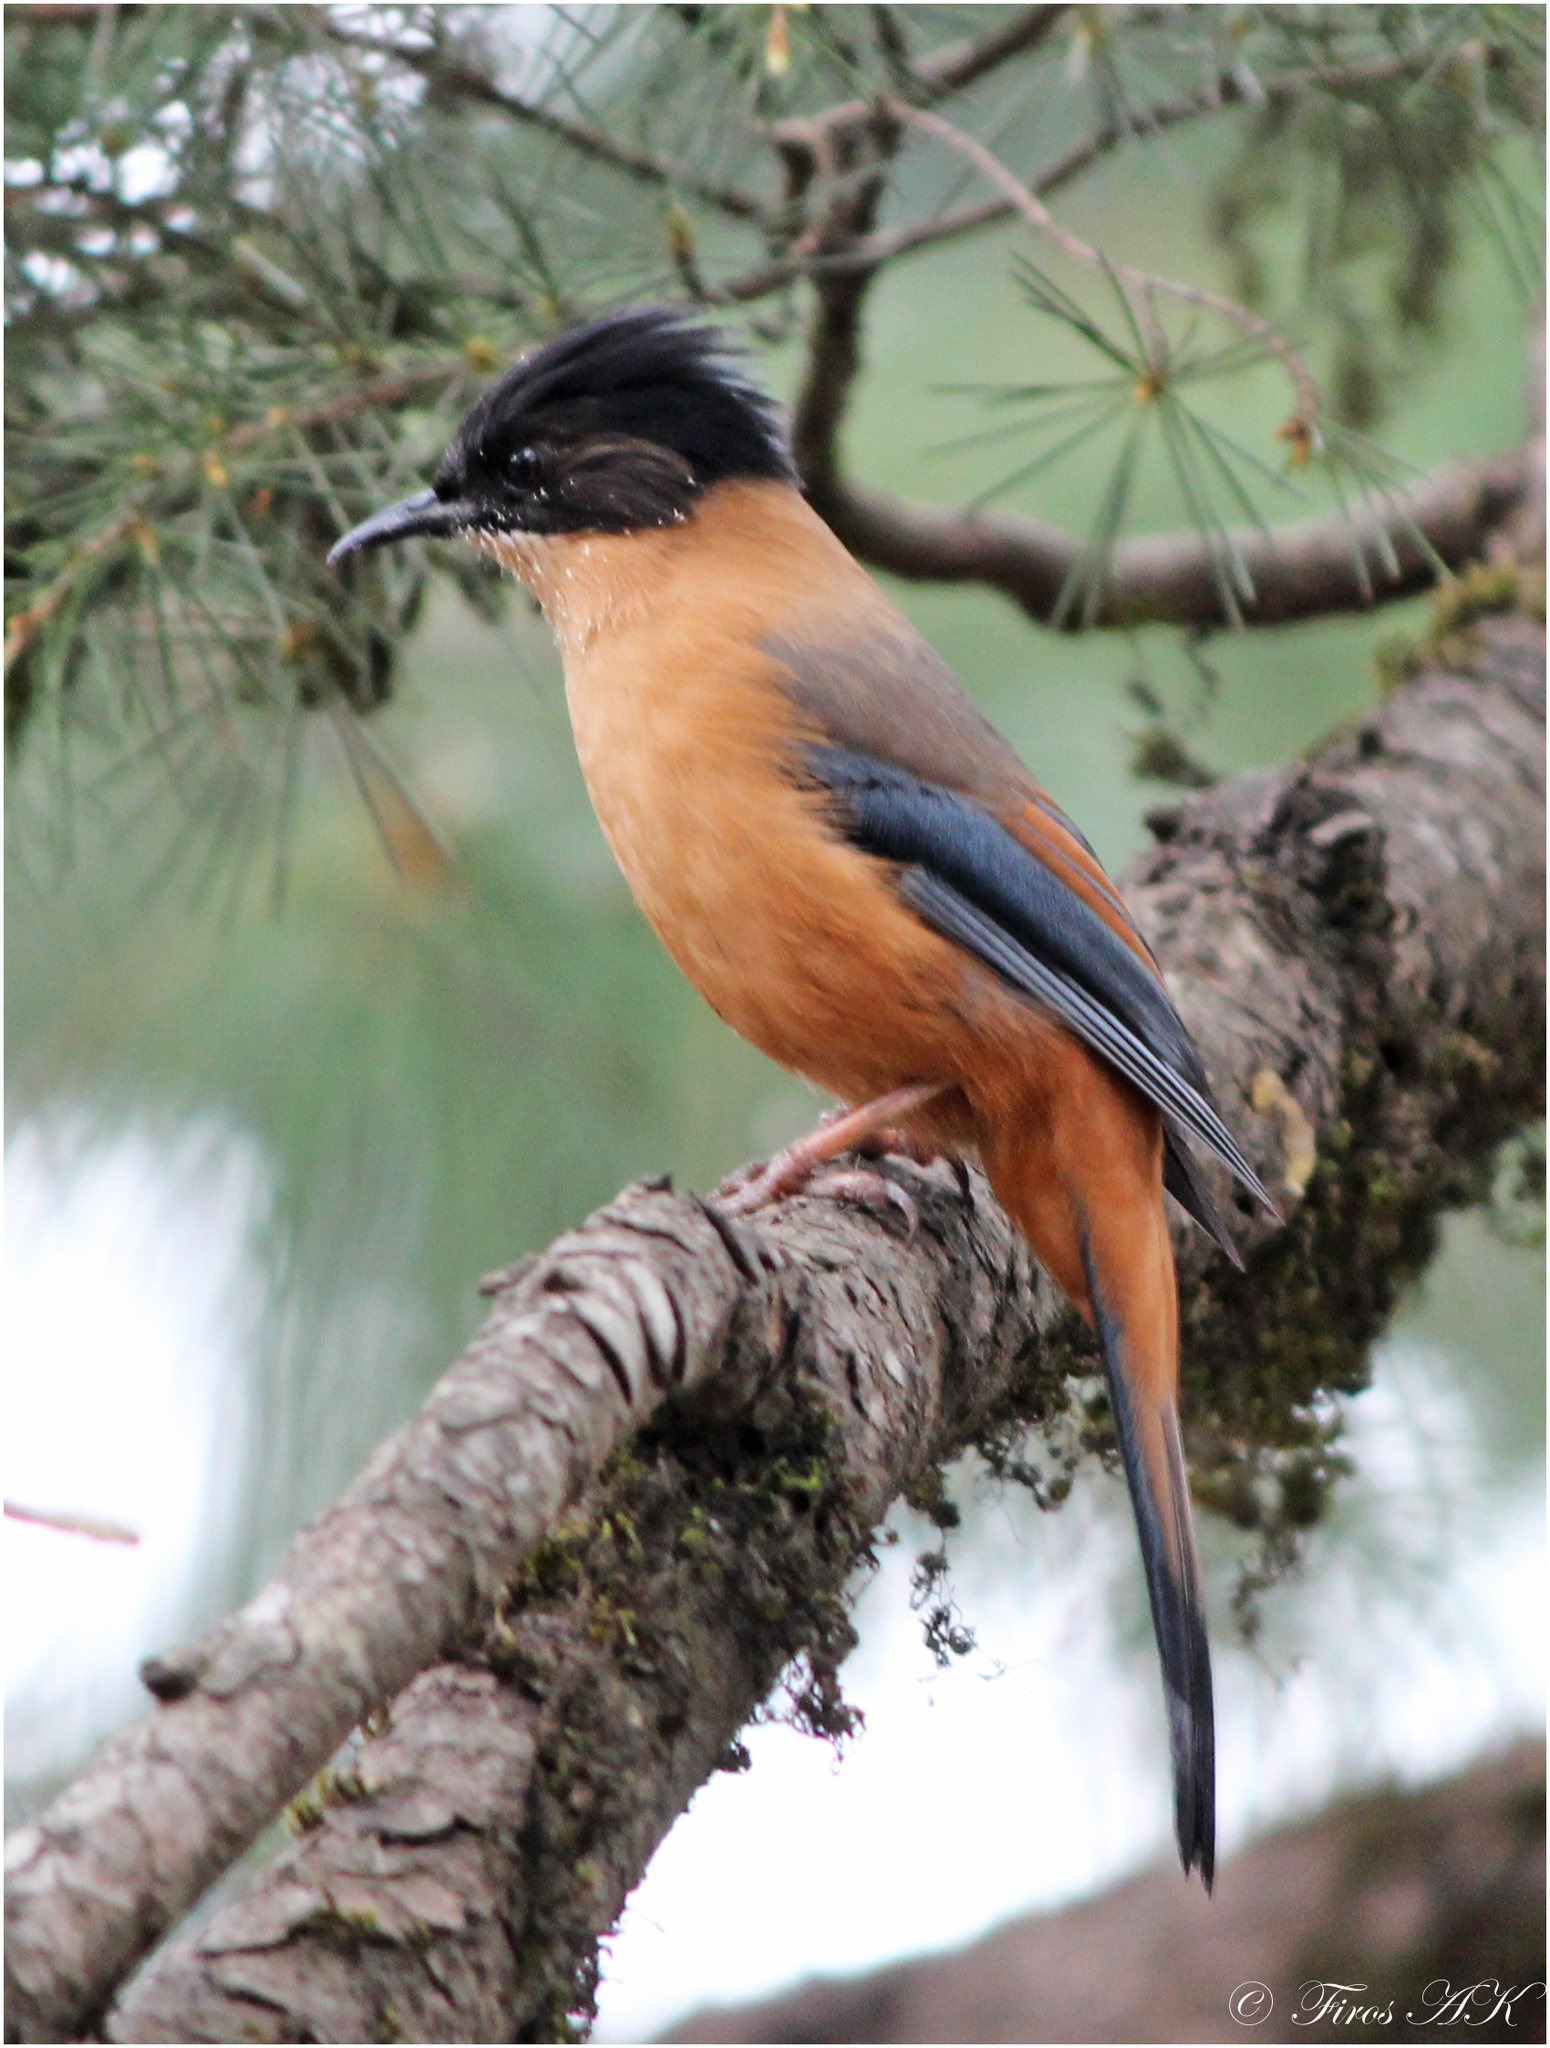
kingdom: Animalia
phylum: Chordata
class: Aves
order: Passeriformes
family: Leiothrichidae
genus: Heterophasia
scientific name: Heterophasia capistrata
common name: Rufous sibia
